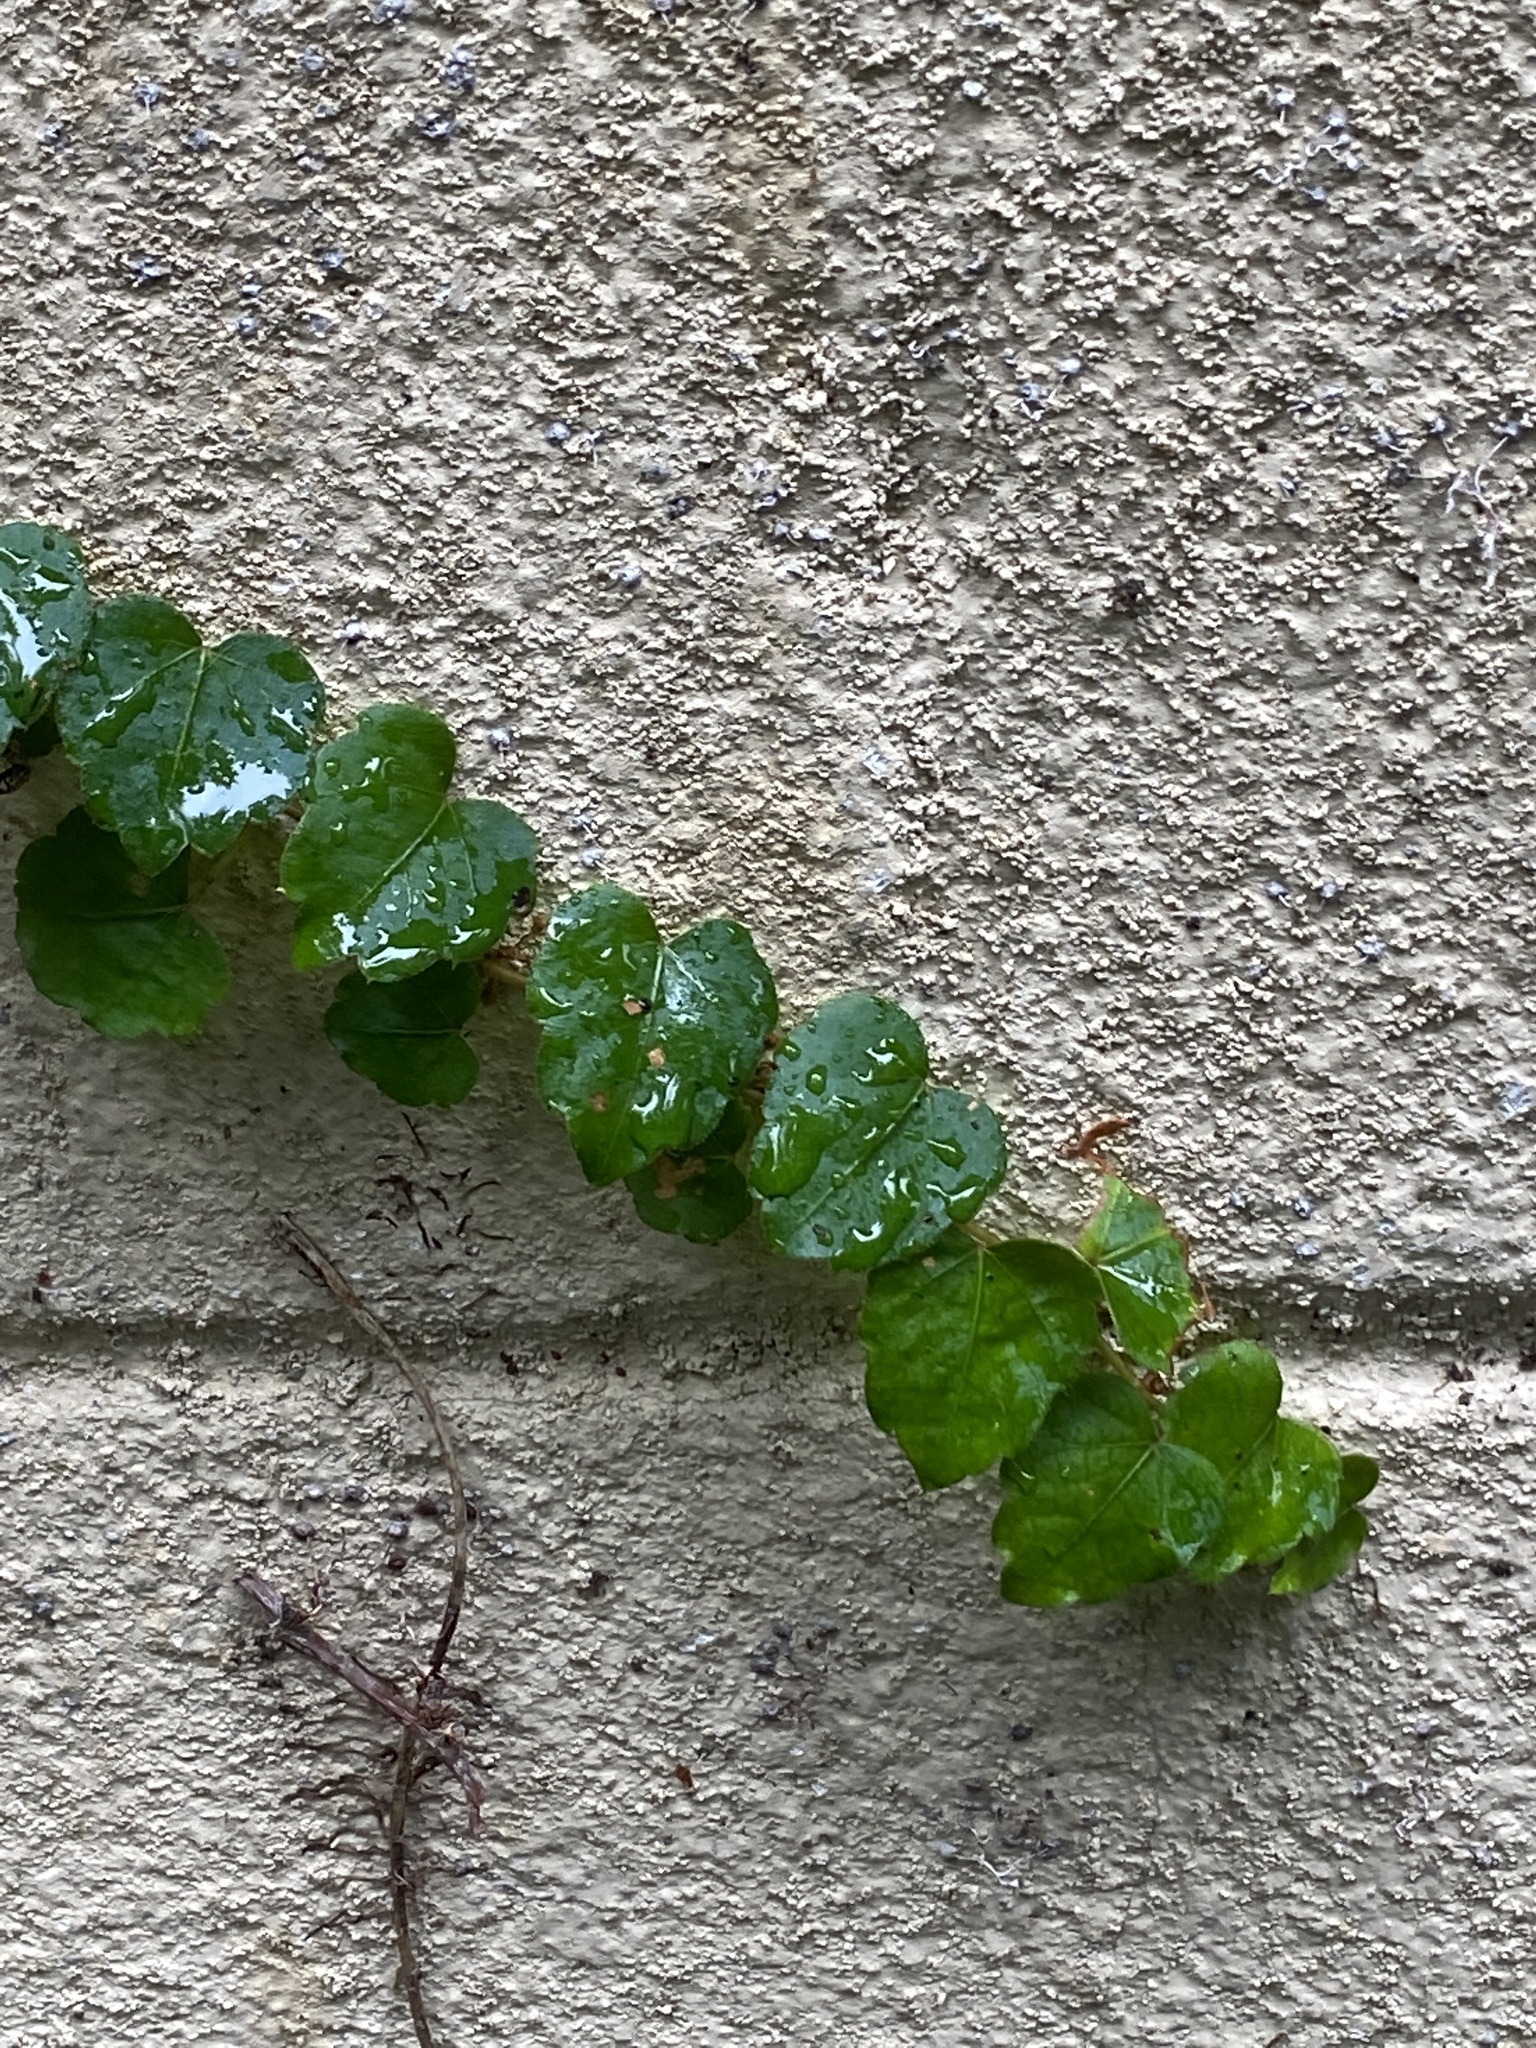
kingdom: Plantae
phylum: Tracheophyta
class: Magnoliopsida
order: Vitales
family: Vitaceae
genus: Parthenocissus
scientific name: Parthenocissus tricuspidata
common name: Boston ivy
